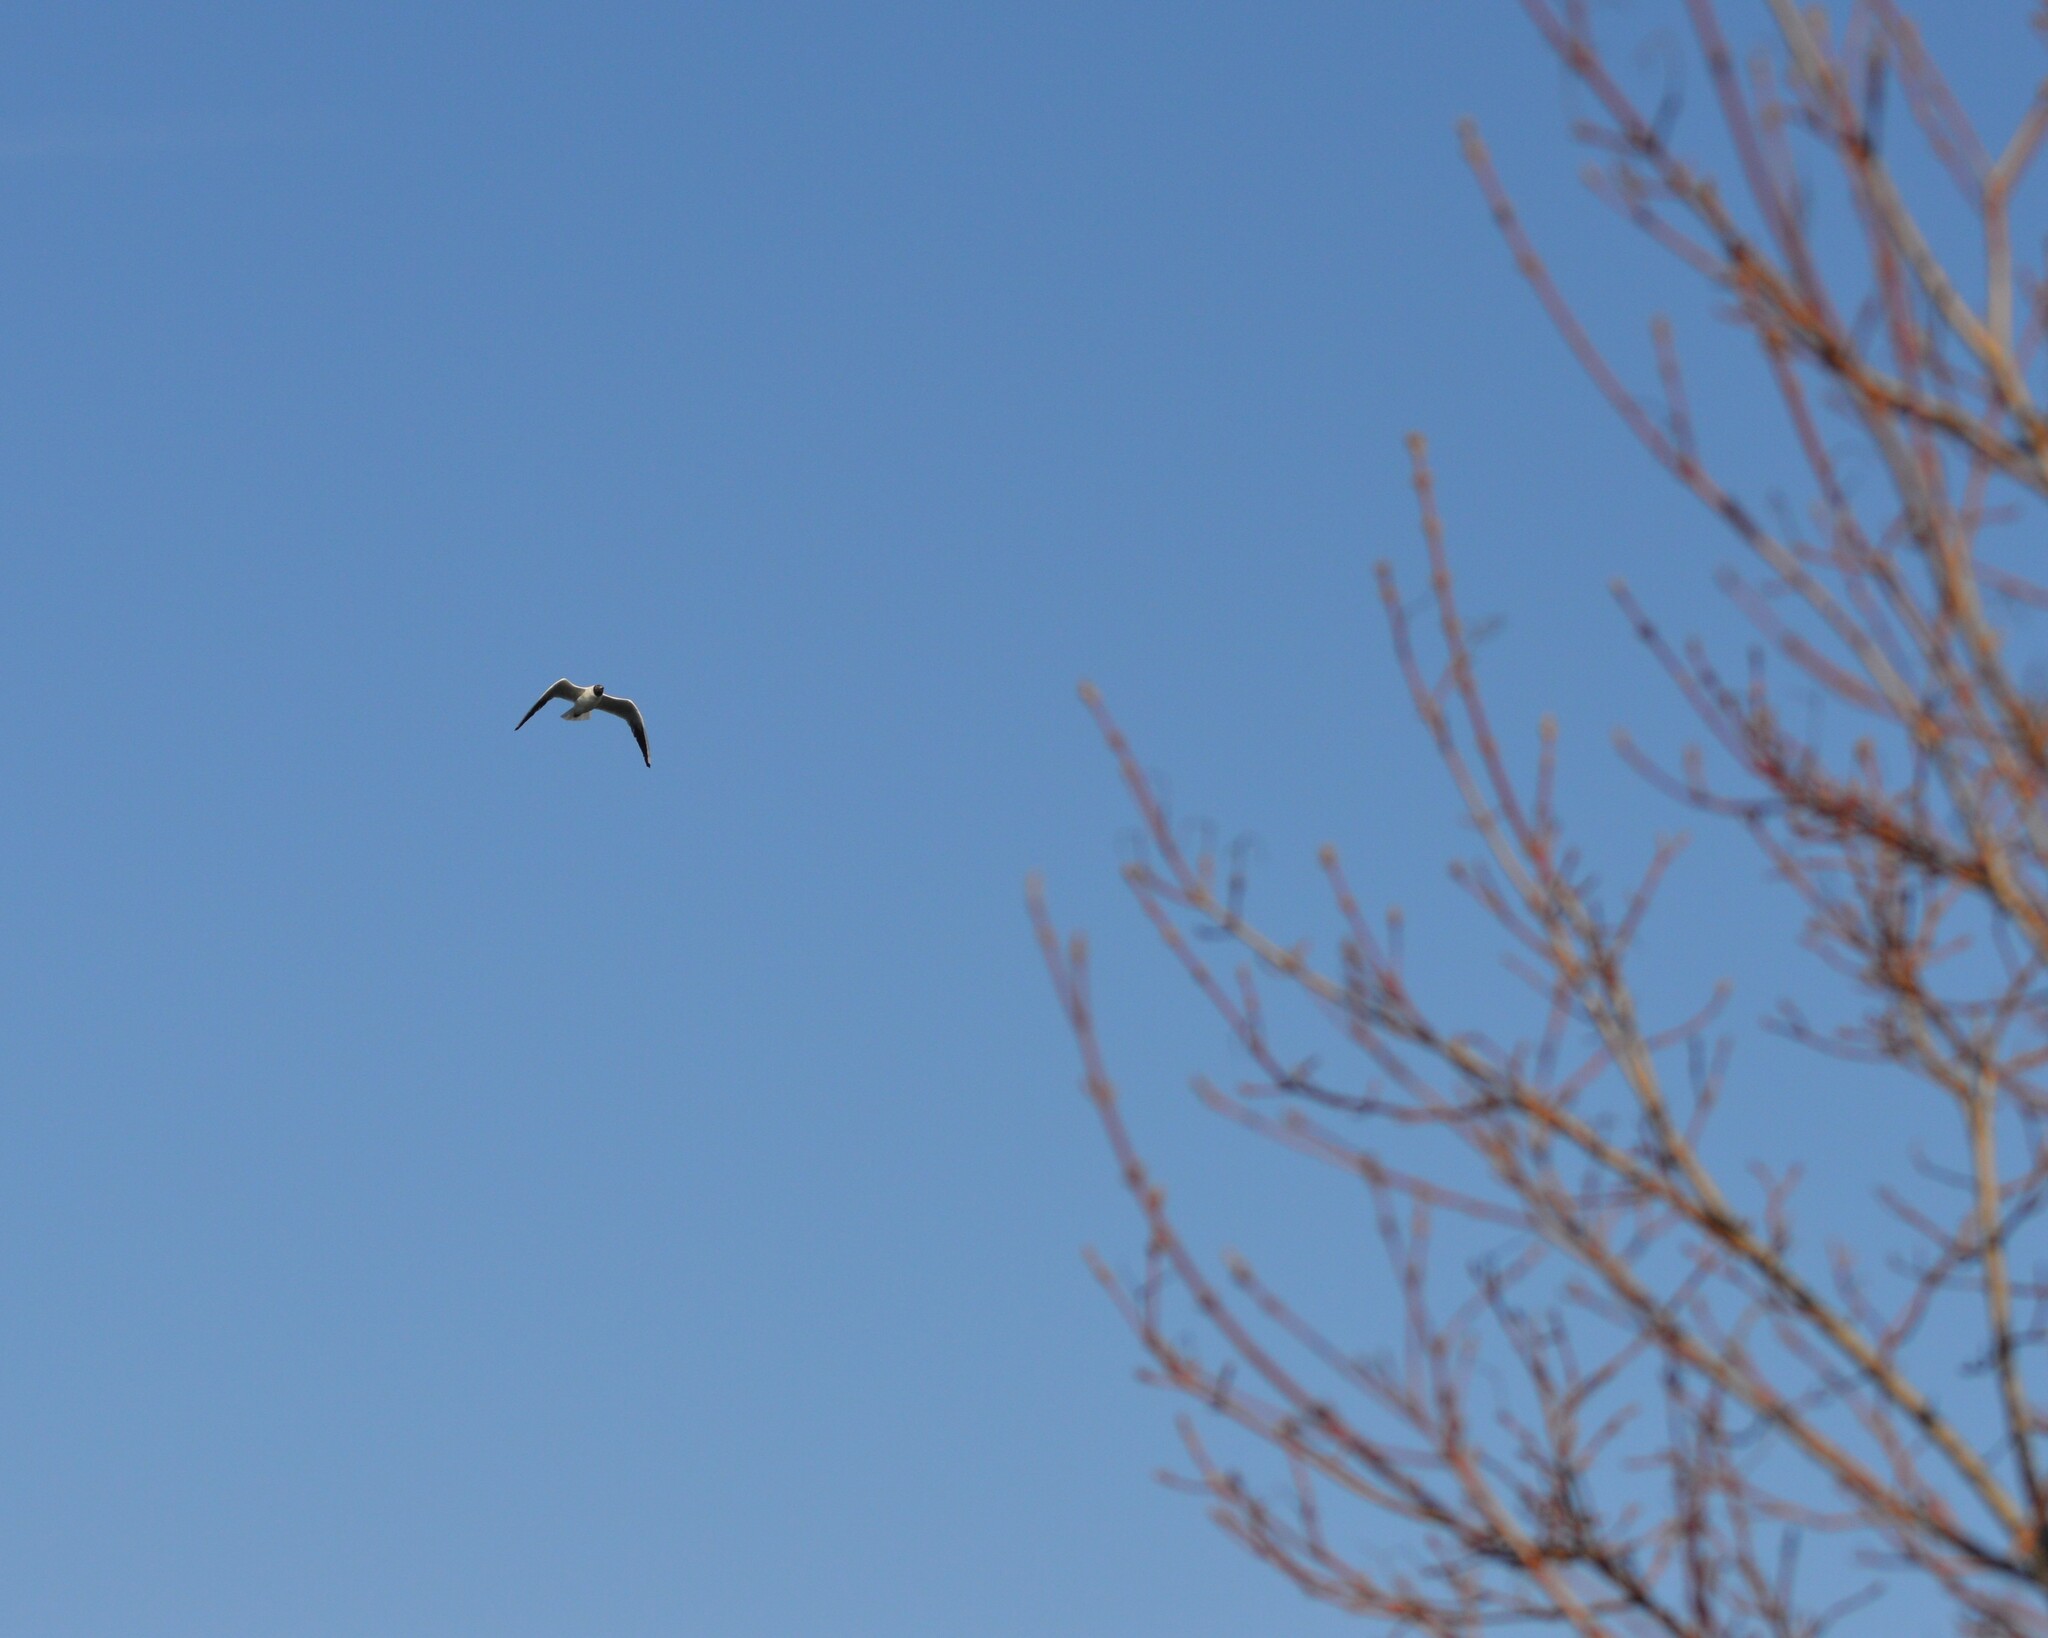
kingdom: Animalia
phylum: Chordata
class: Aves
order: Charadriiformes
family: Laridae
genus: Chroicocephalus
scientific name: Chroicocephalus ridibundus
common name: Black-headed gull
